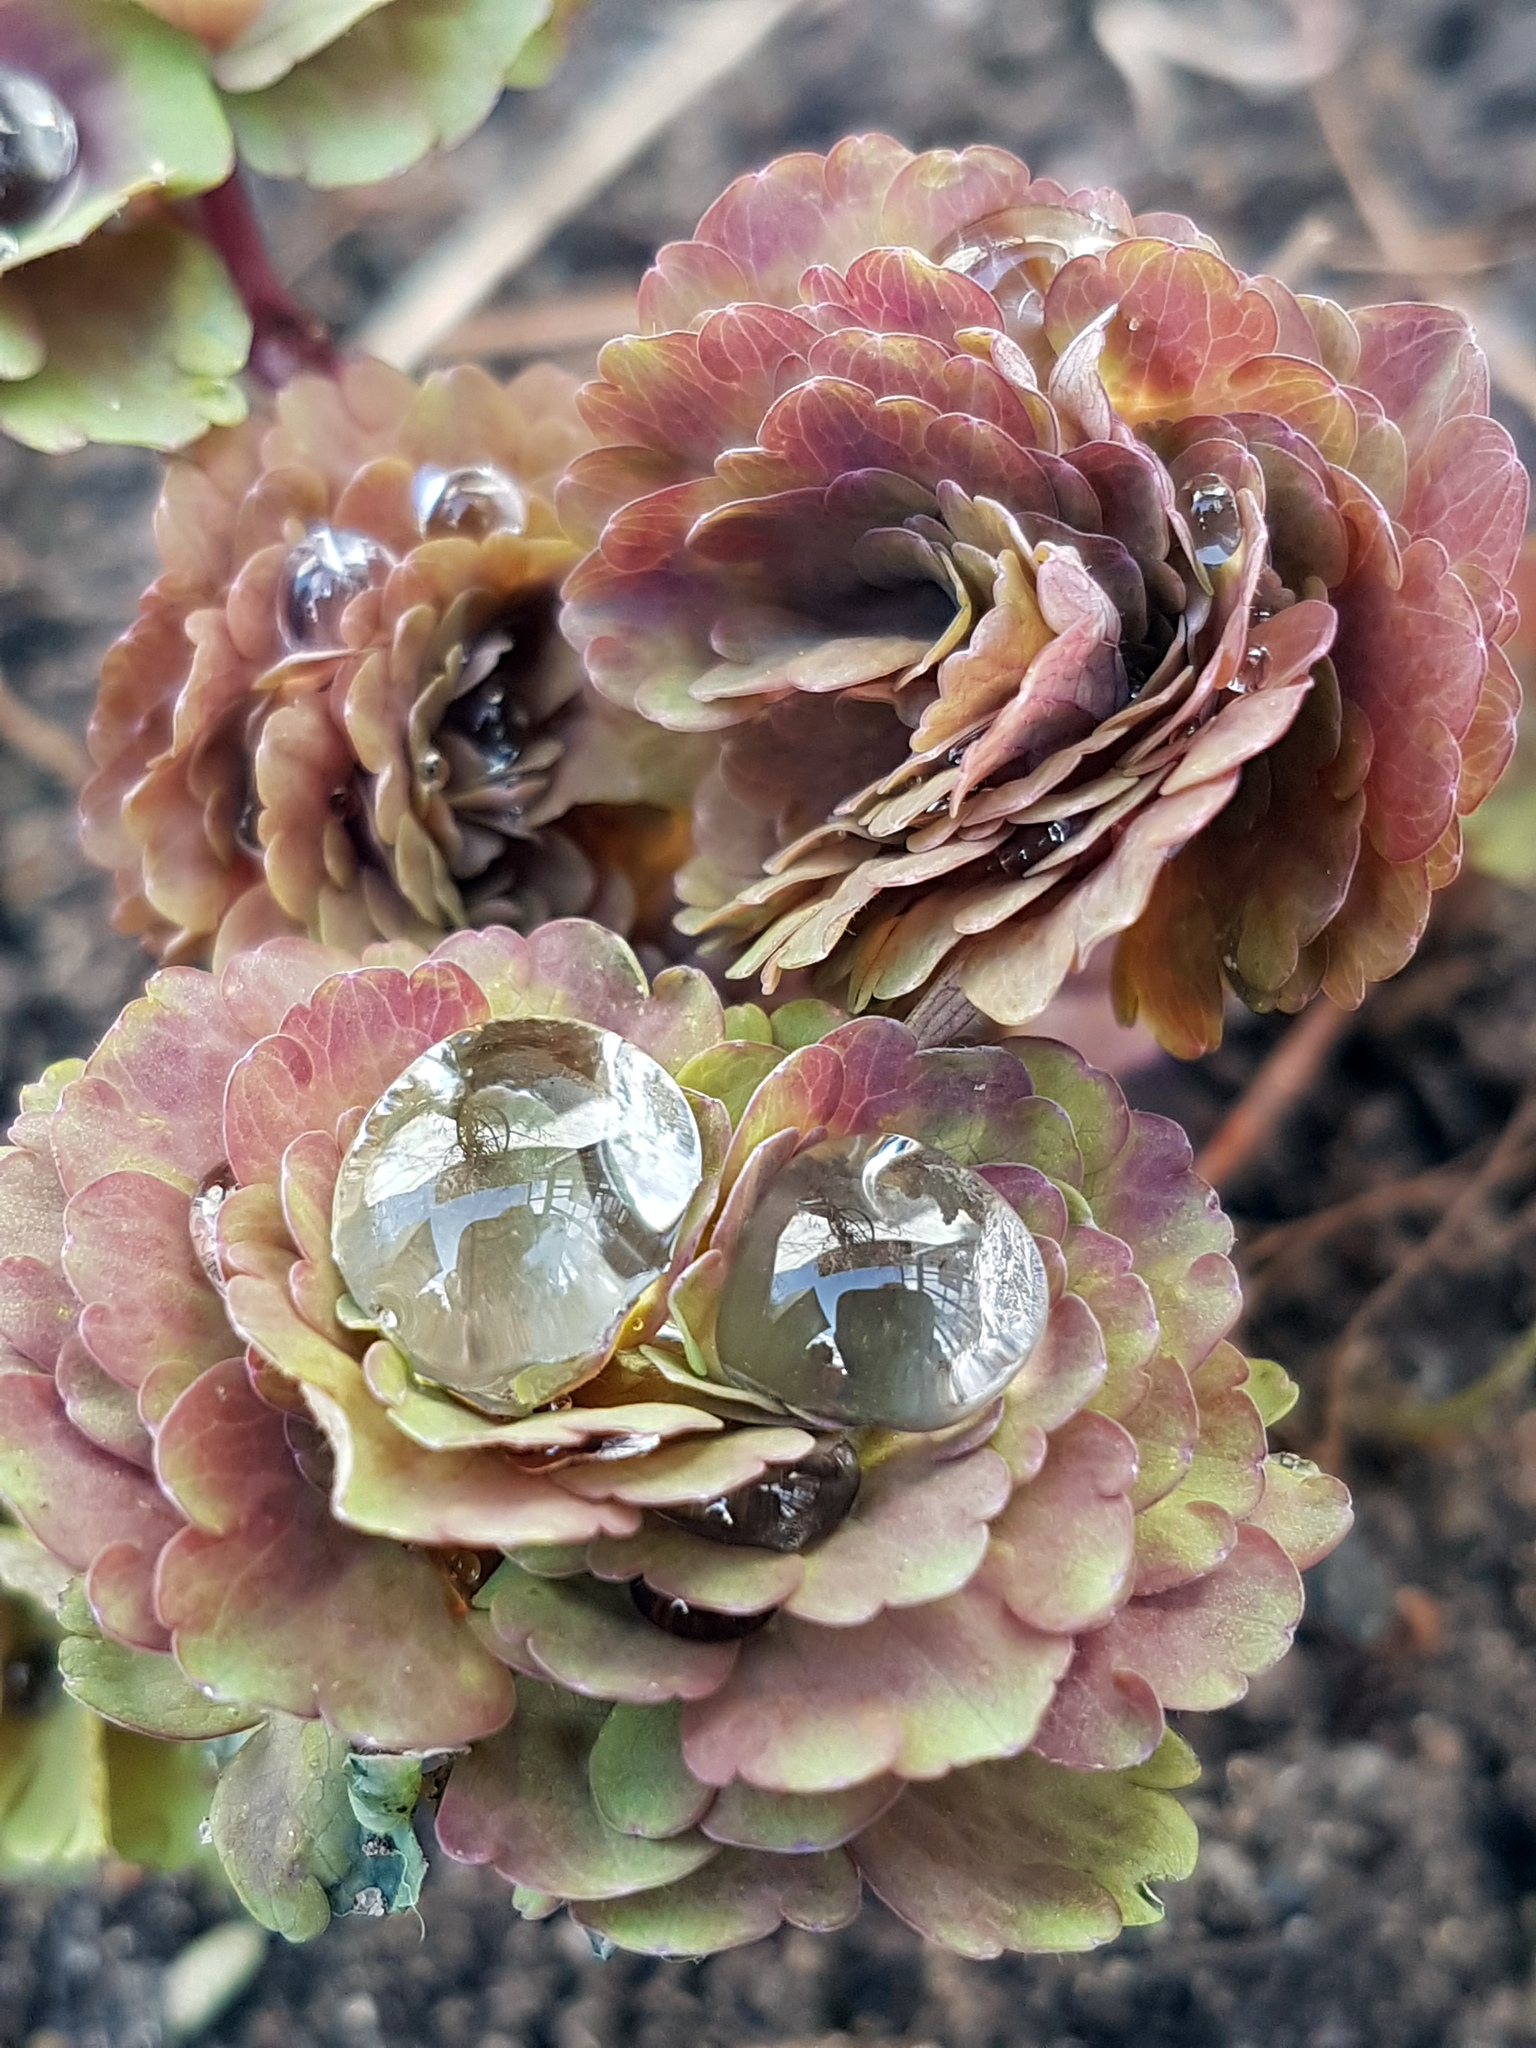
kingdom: Plantae
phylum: Tracheophyta
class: Magnoliopsida
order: Ranunculales
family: Ranunculaceae
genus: Aquilegia
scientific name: Aquilegia vulgaris
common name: Columbine
